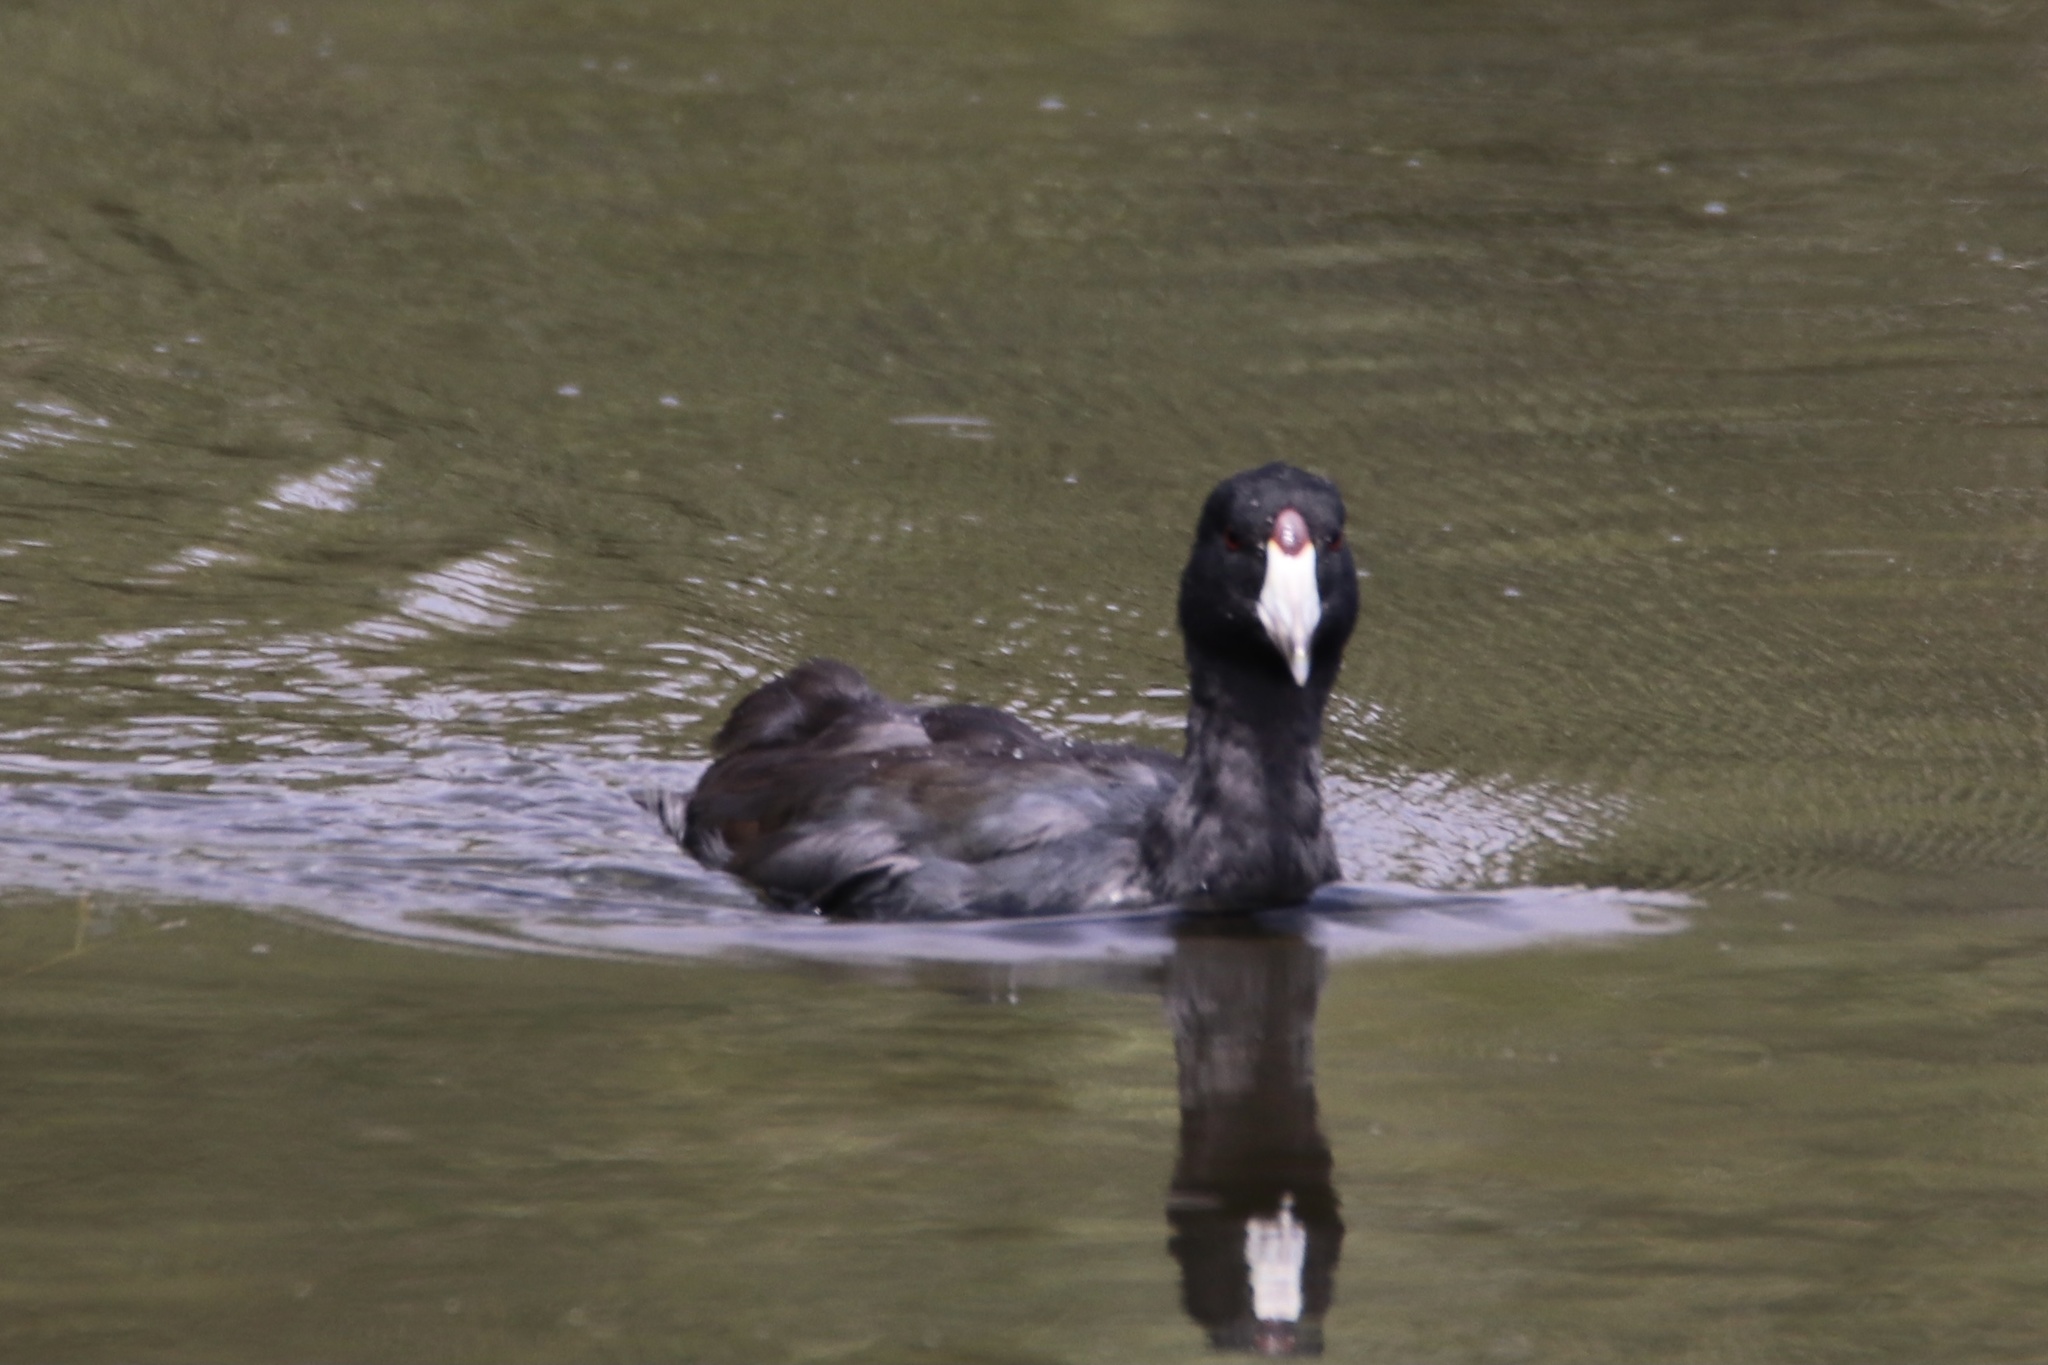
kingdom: Animalia
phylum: Chordata
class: Aves
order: Gruiformes
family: Rallidae
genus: Fulica
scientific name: Fulica americana
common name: American coot
